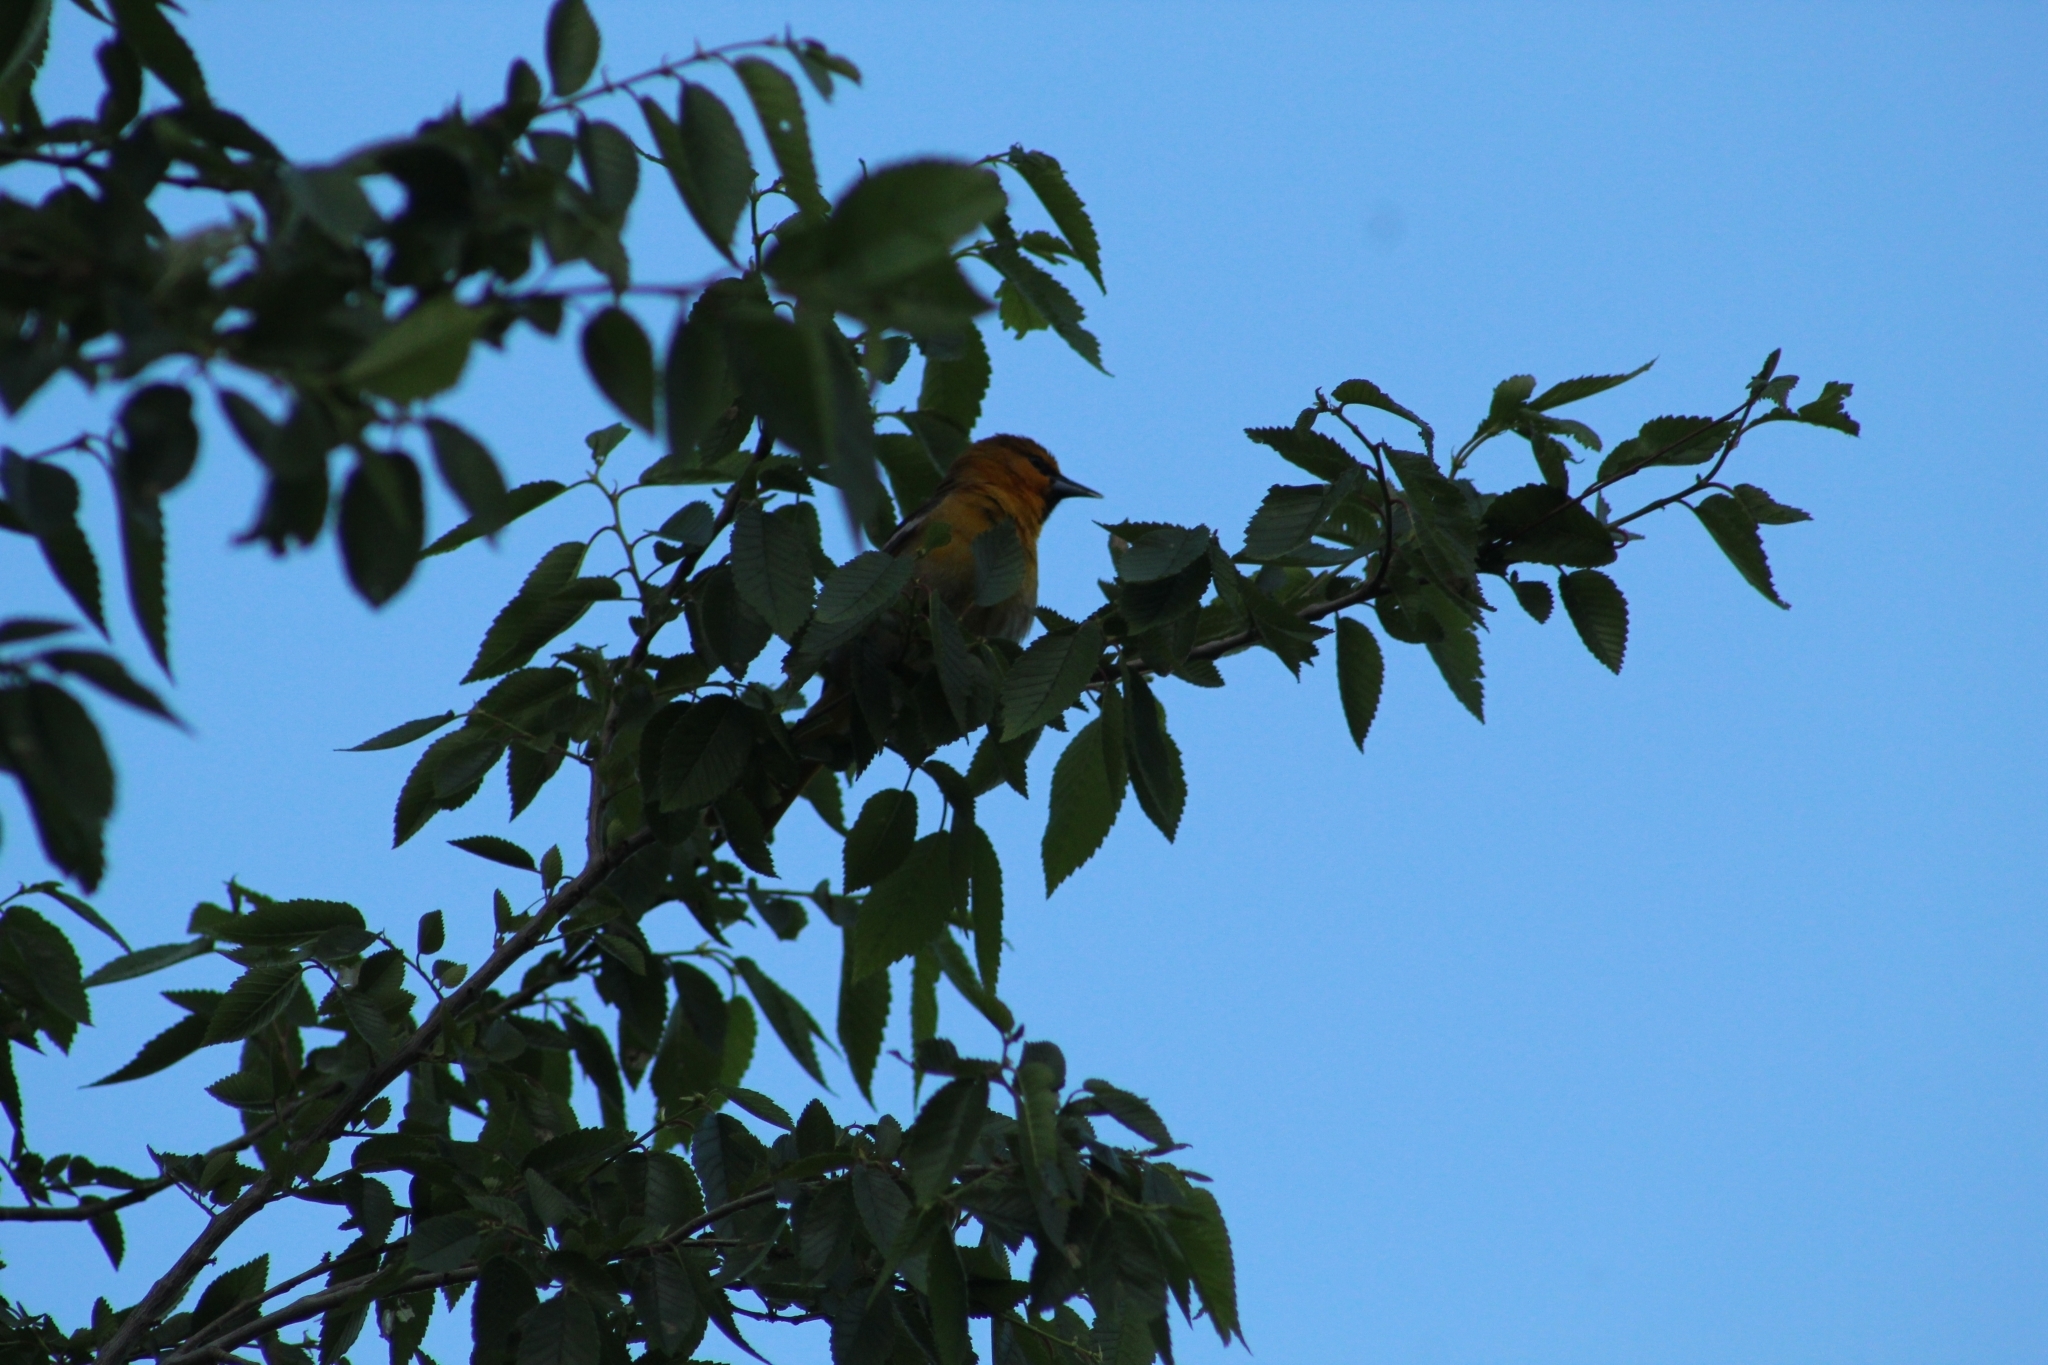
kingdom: Animalia
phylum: Chordata
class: Aves
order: Passeriformes
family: Icteridae
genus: Icterus
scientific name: Icterus bullockii
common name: Bullock's oriole
